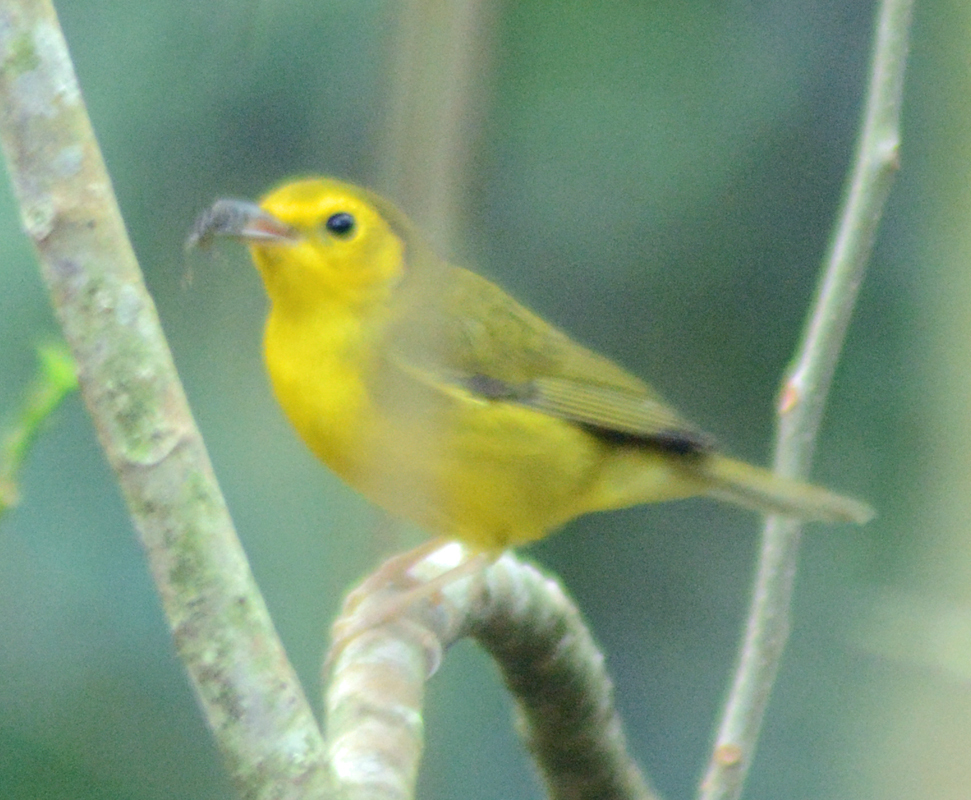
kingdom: Animalia
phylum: Chordata
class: Aves
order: Passeriformes
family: Parulidae
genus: Setophaga
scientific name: Setophaga citrina
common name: Hooded warbler
